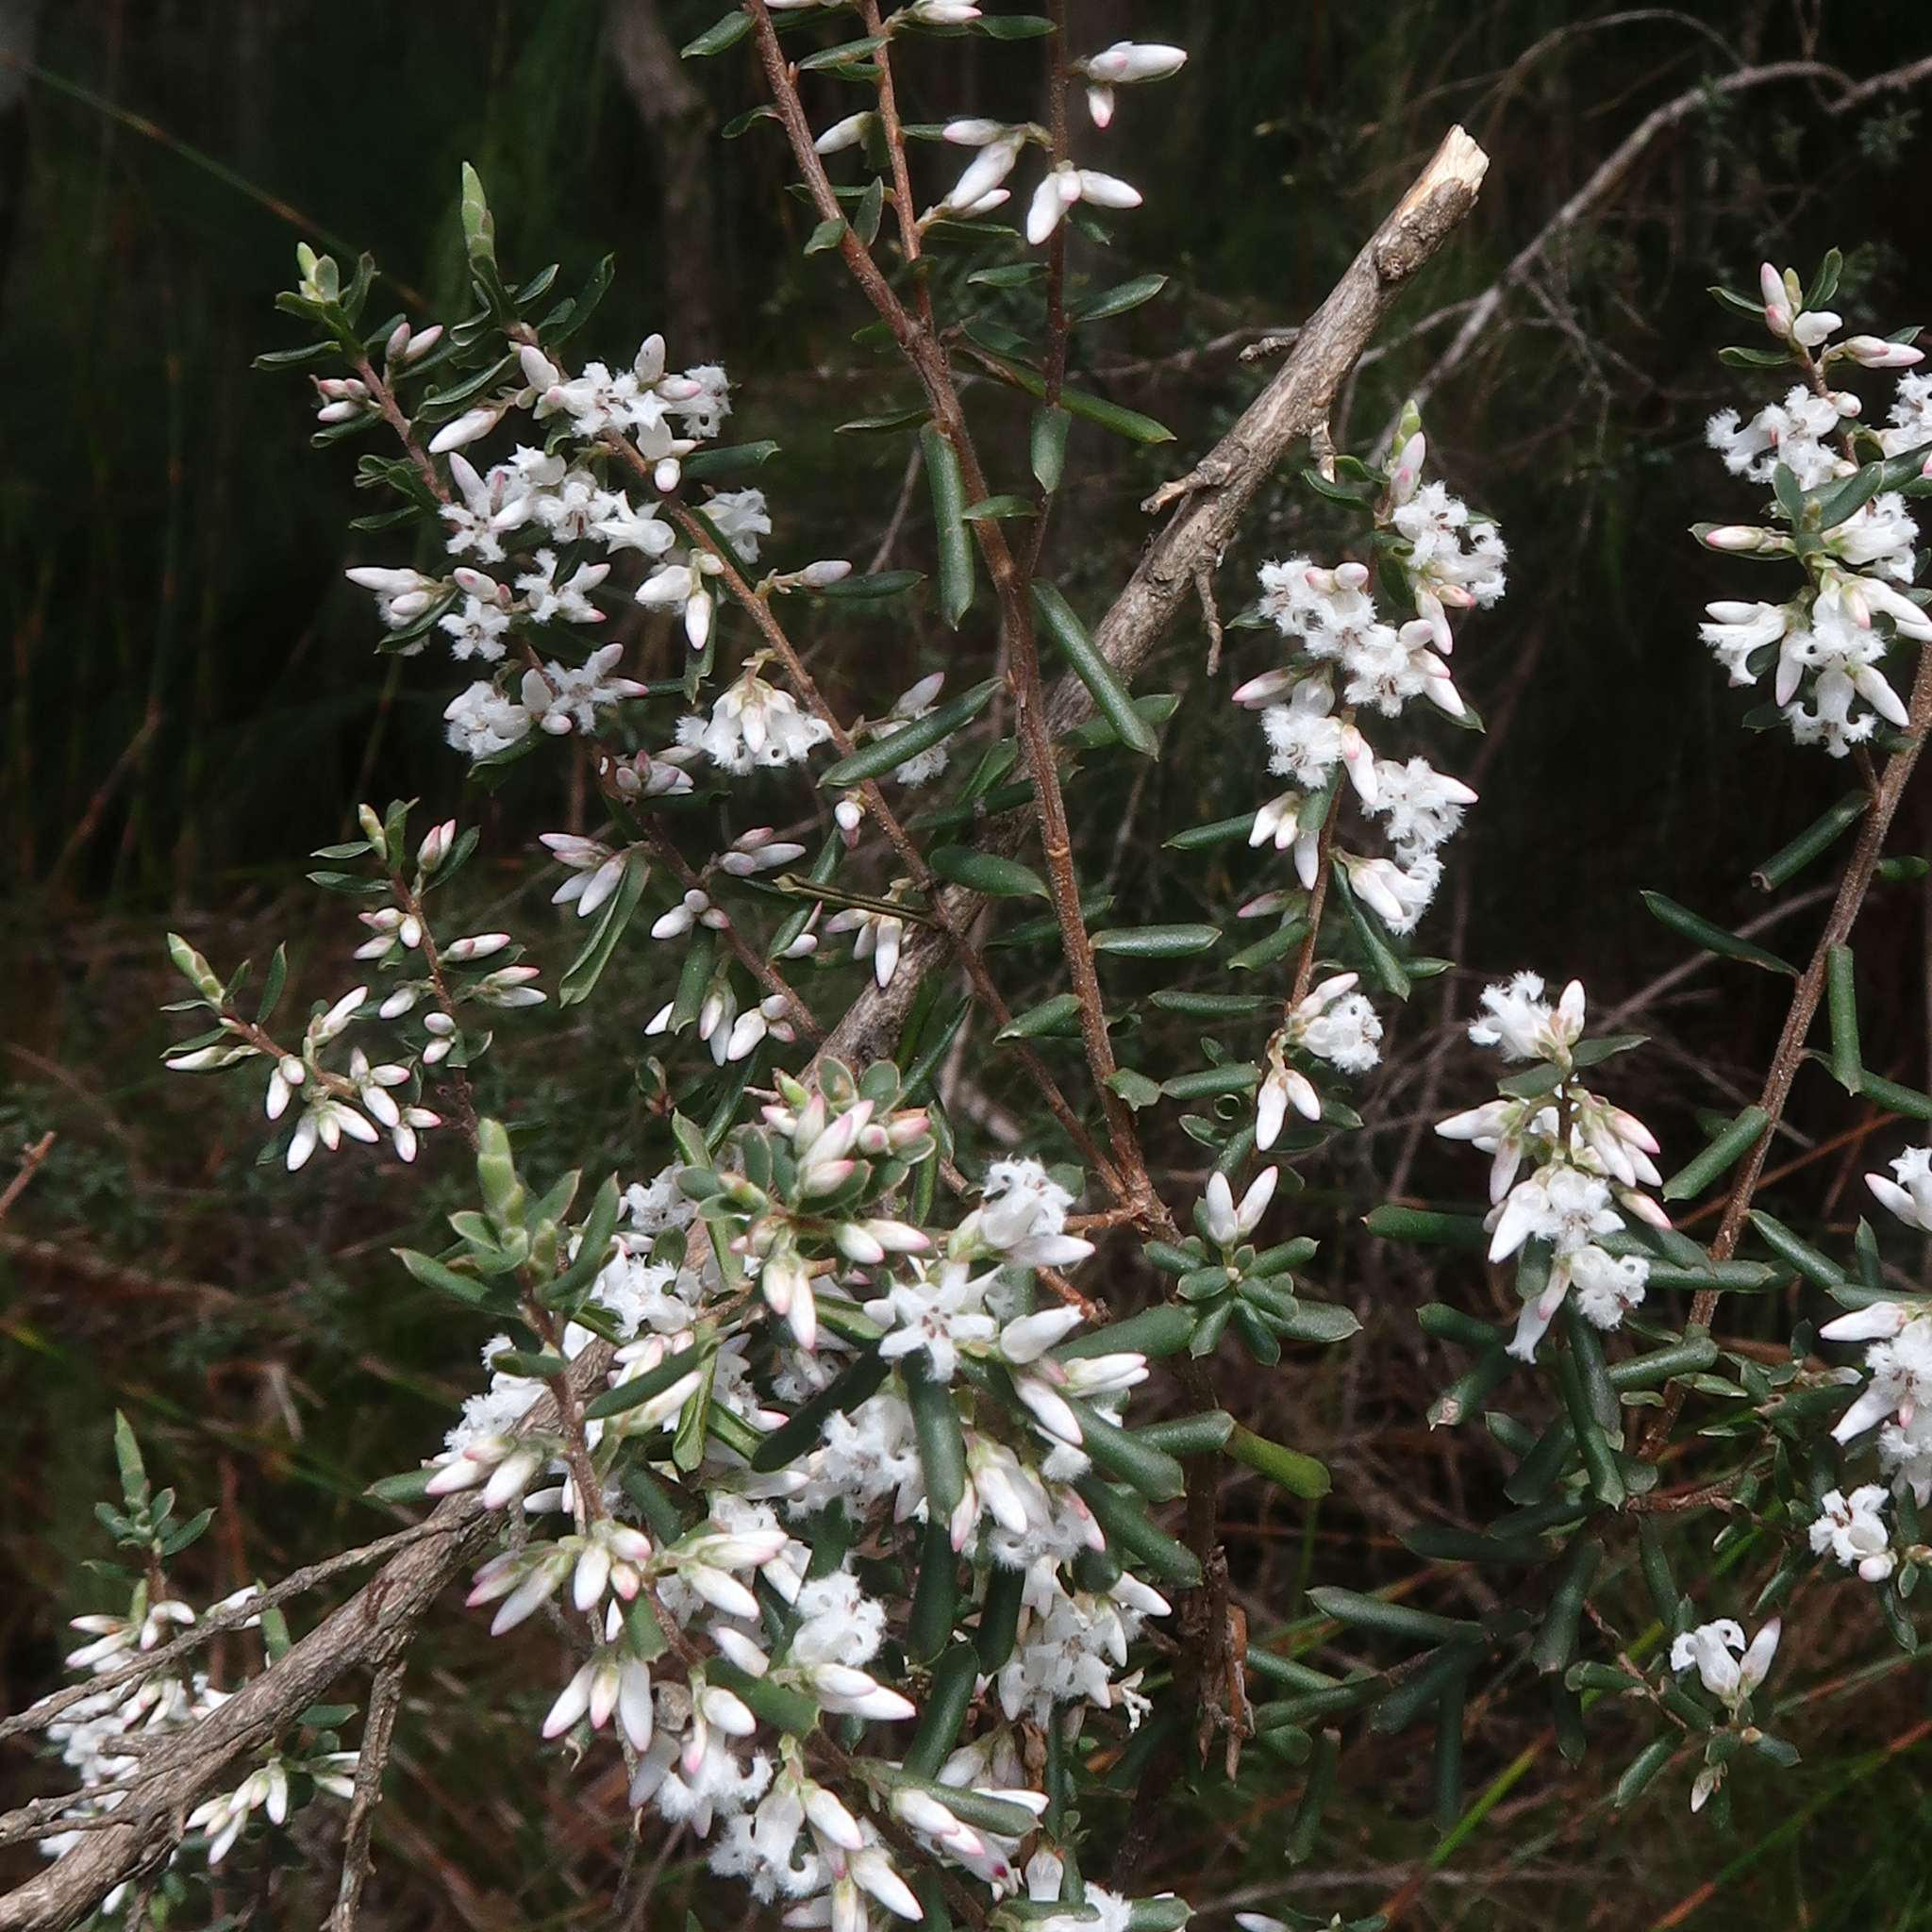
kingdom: Plantae
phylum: Tracheophyta
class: Magnoliopsida
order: Ericales
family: Ericaceae
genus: Styphelia
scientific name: Styphelia ericoides
